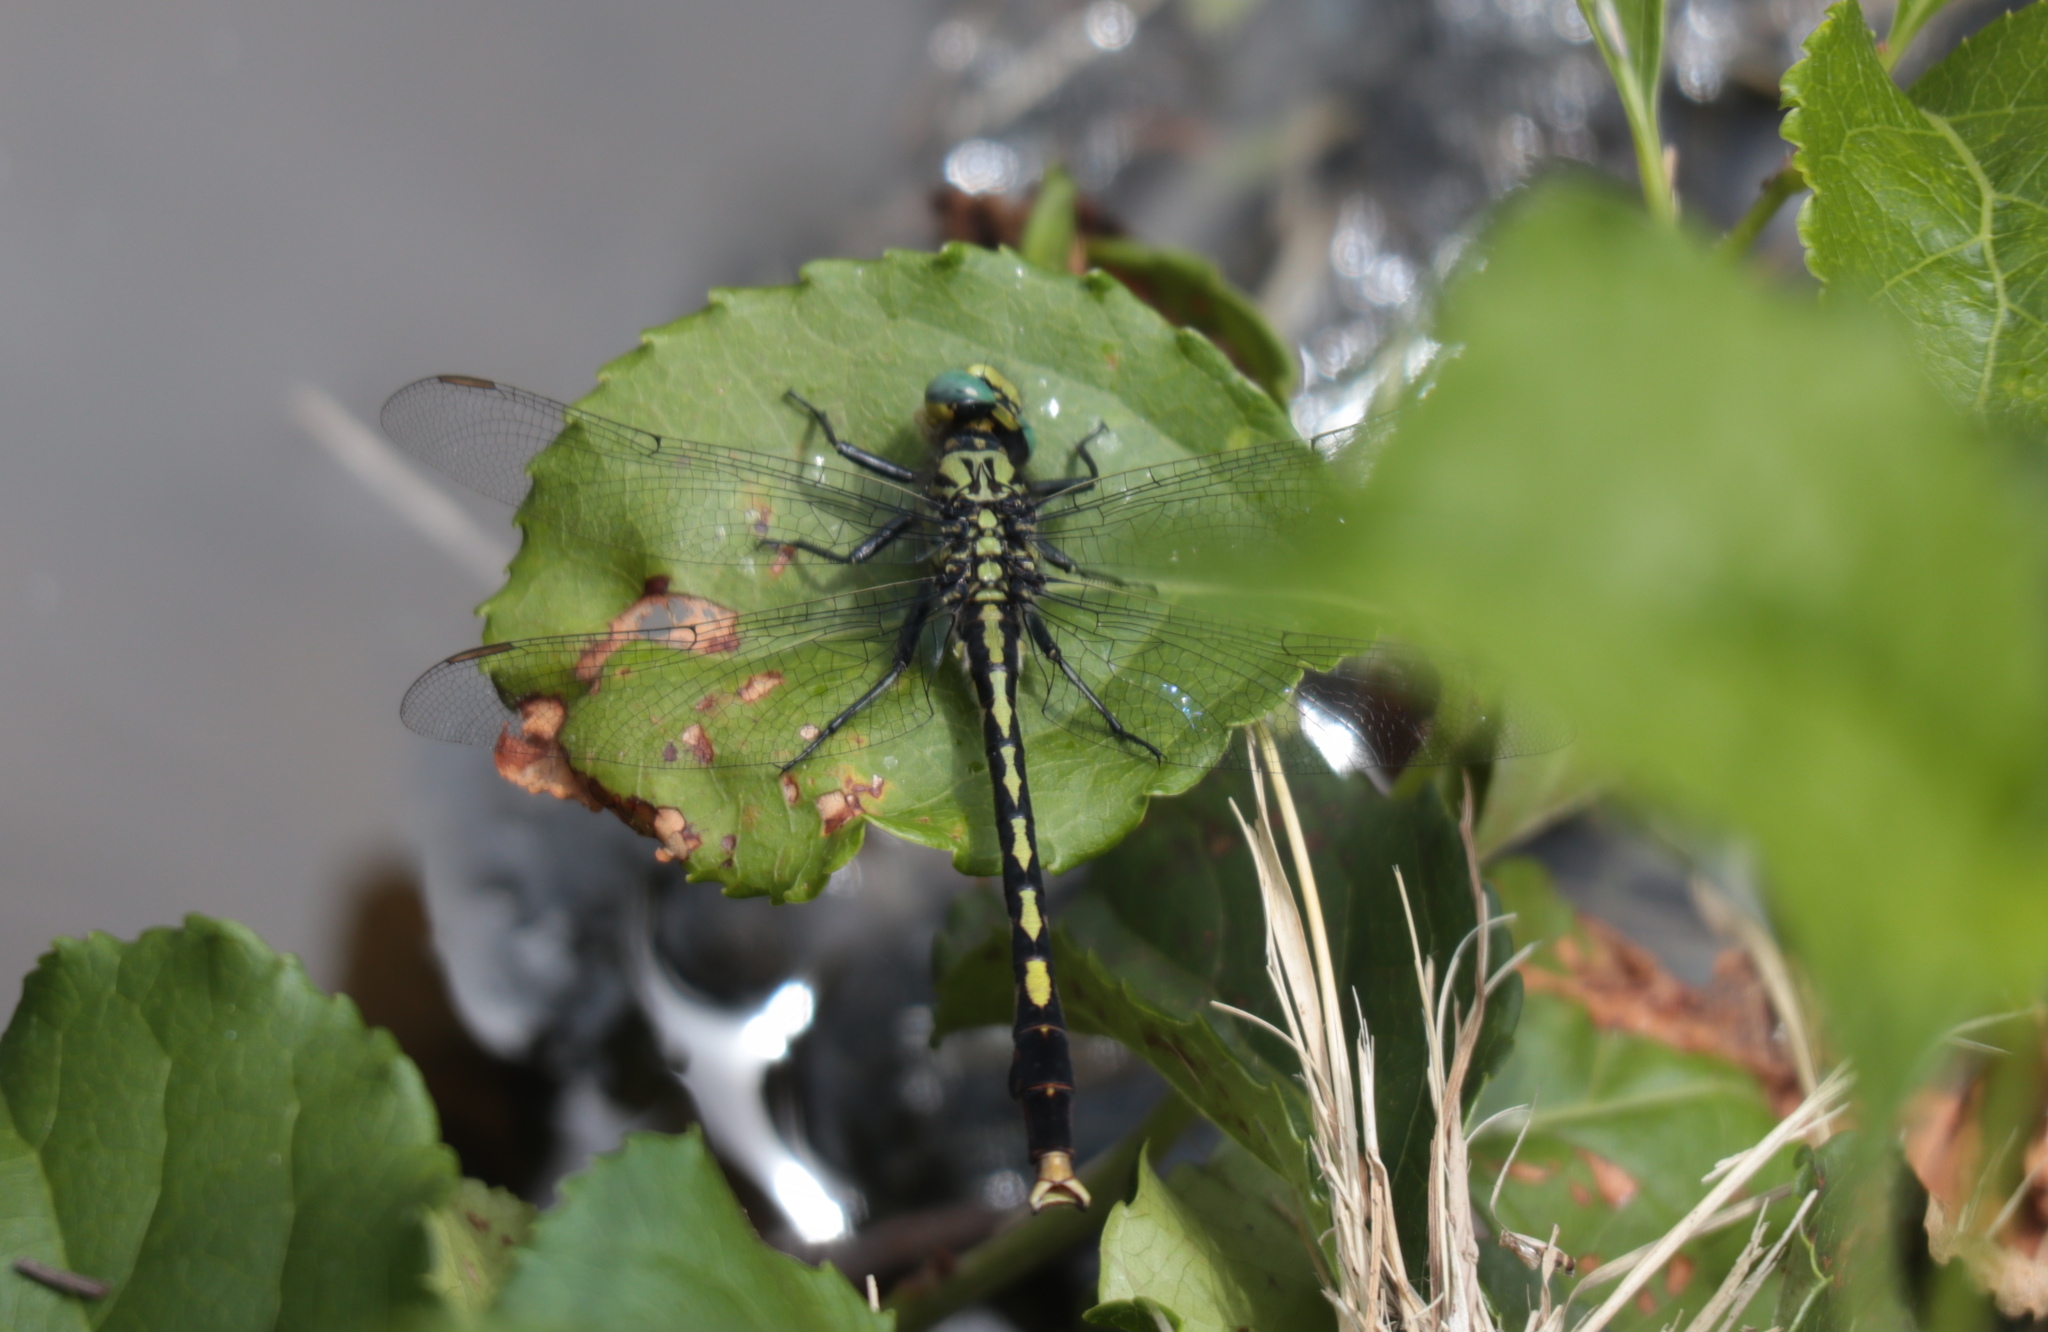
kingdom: Animalia
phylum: Arthropoda
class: Insecta
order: Odonata
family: Gomphidae
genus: Arigomphus
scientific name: Arigomphus villosipes
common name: Unicorn clubtail
